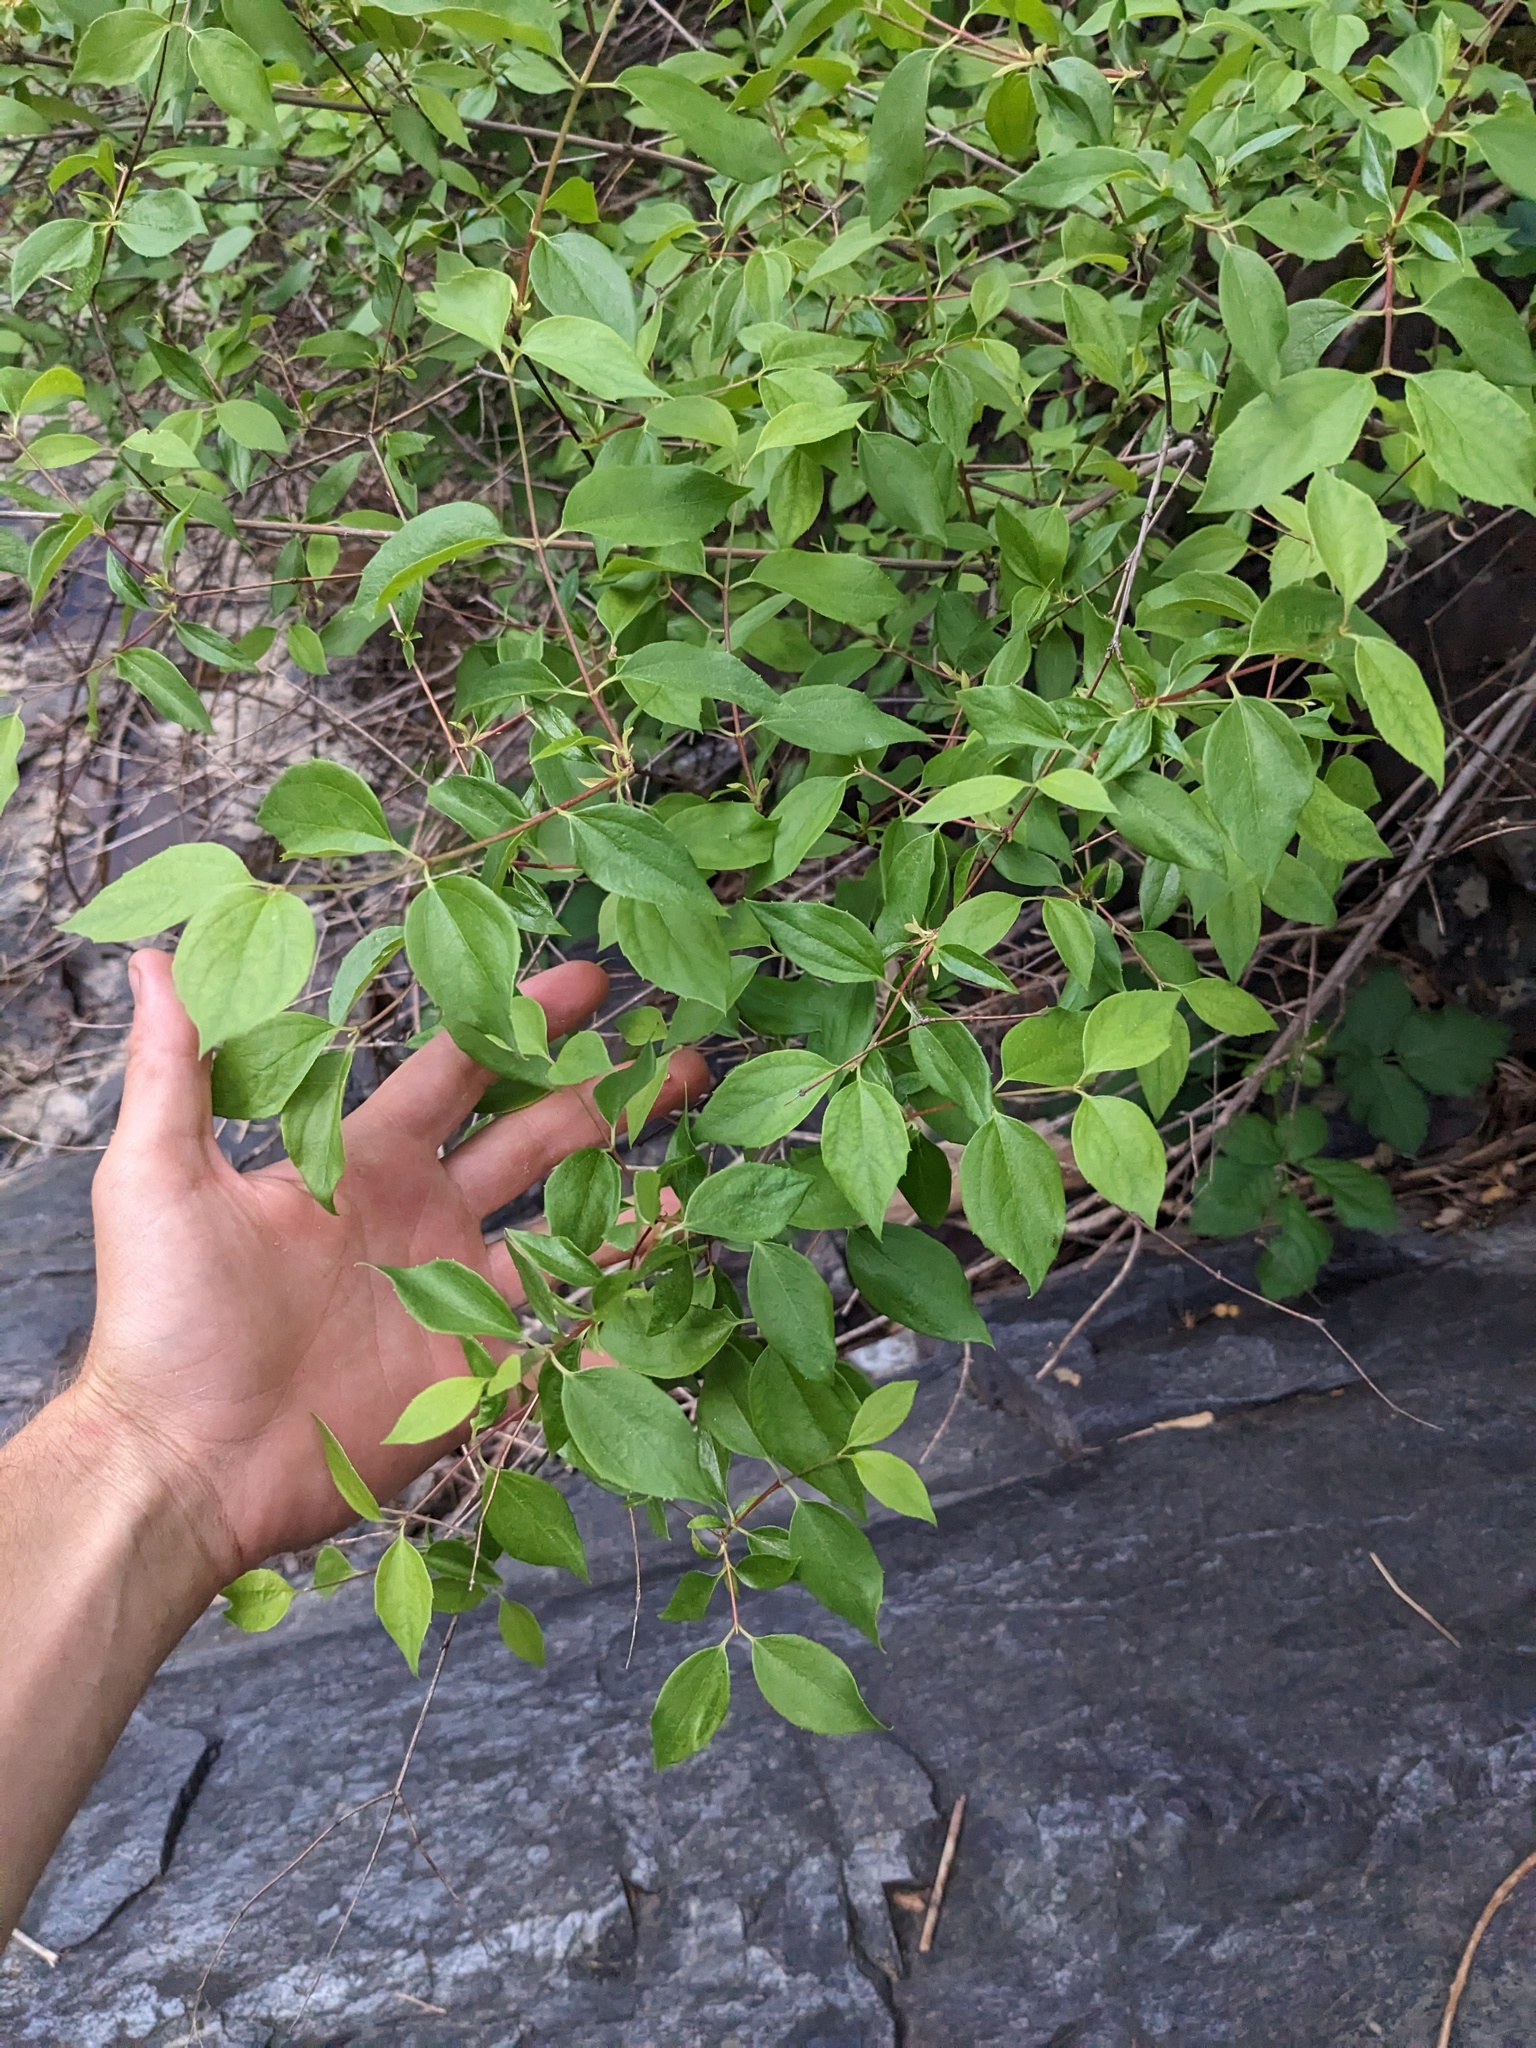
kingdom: Plantae
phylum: Tracheophyta
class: Magnoliopsida
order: Cornales
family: Hydrangeaceae
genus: Philadelphus
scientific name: Philadelphus lewisii
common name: Lewis's mock orange
